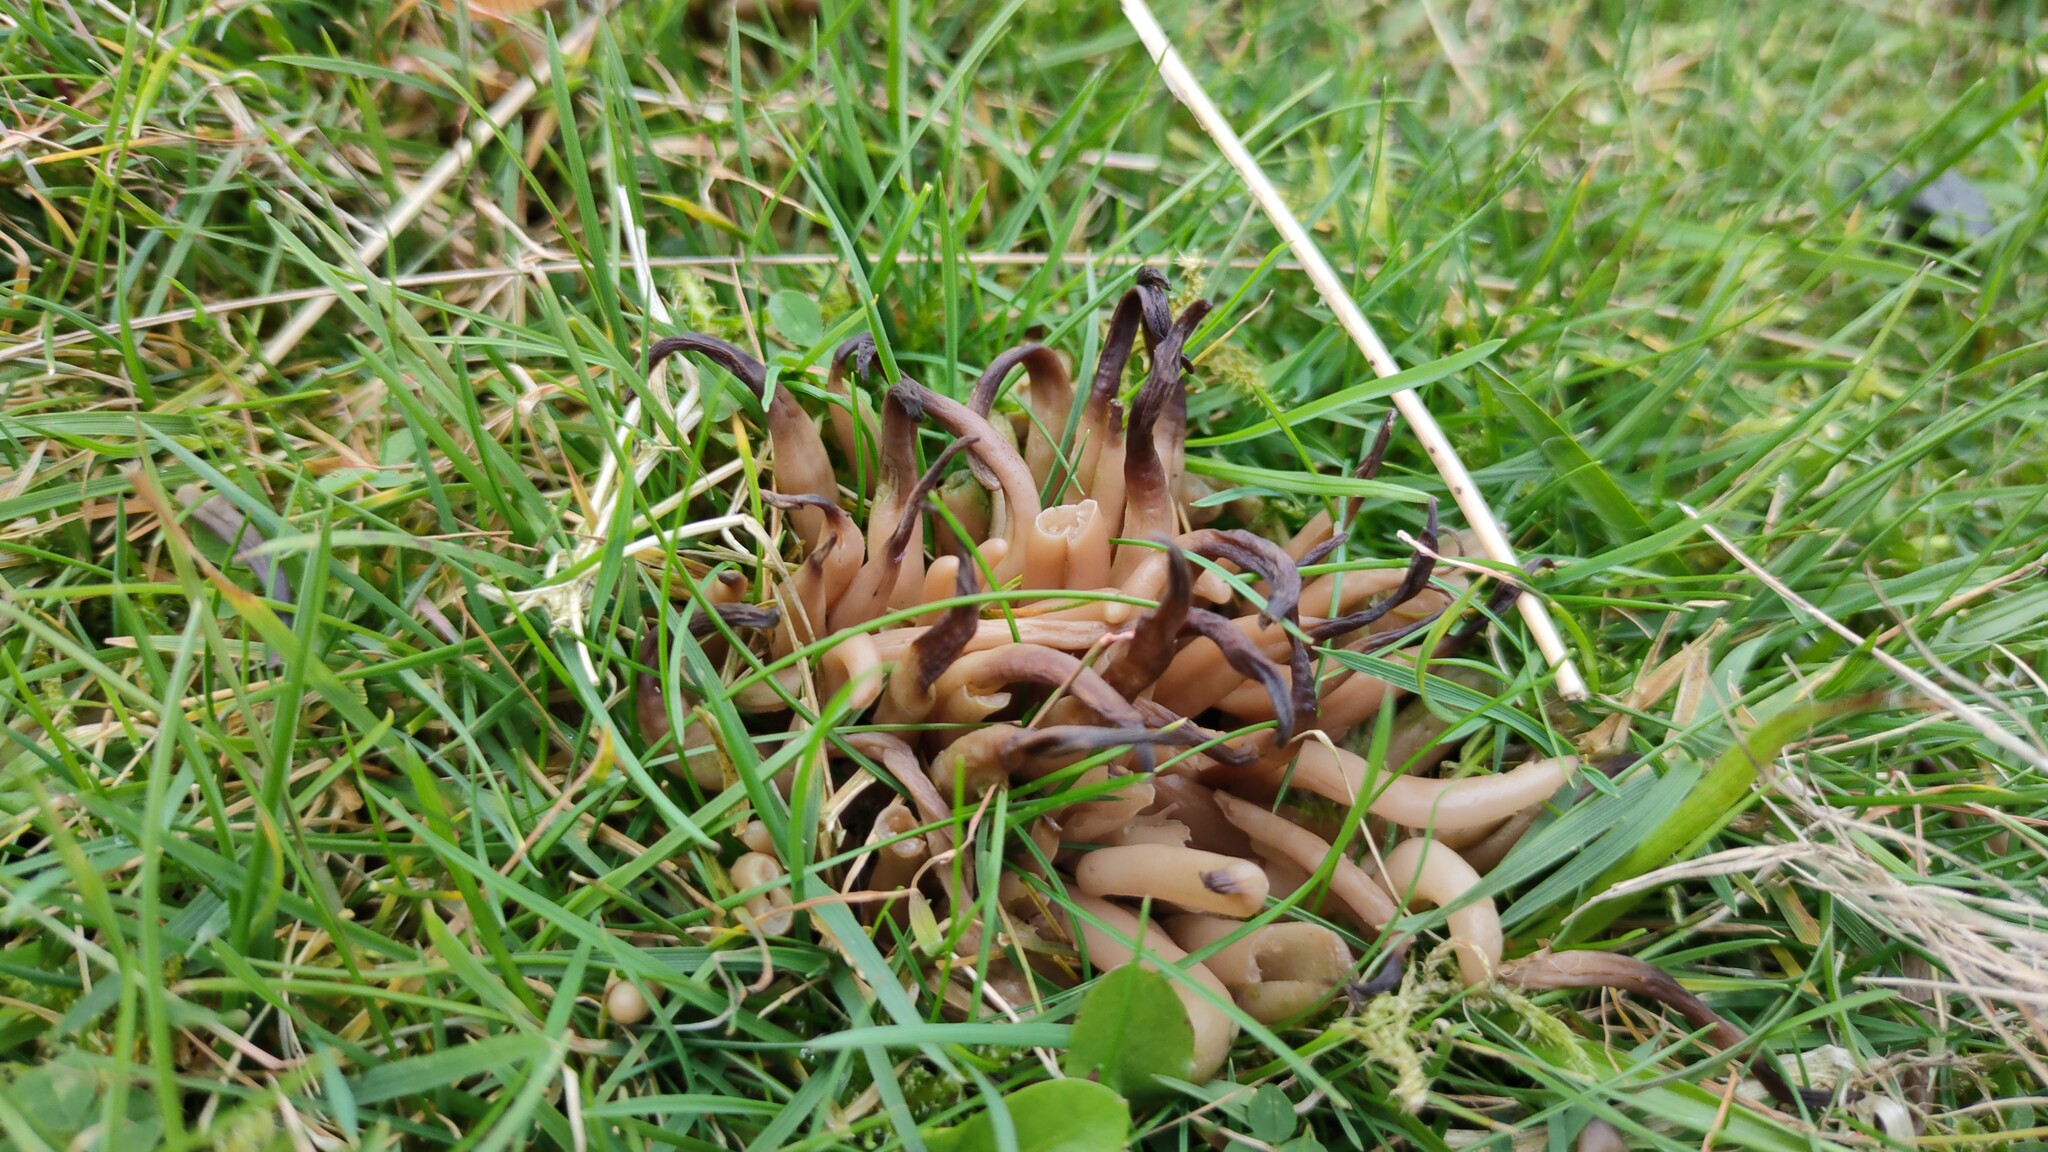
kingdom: Fungi
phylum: Basidiomycota
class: Agaricomycetes
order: Agaricales
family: Clavariaceae
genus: Clavaria
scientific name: Clavaria fumosa
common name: Smoky spindles
